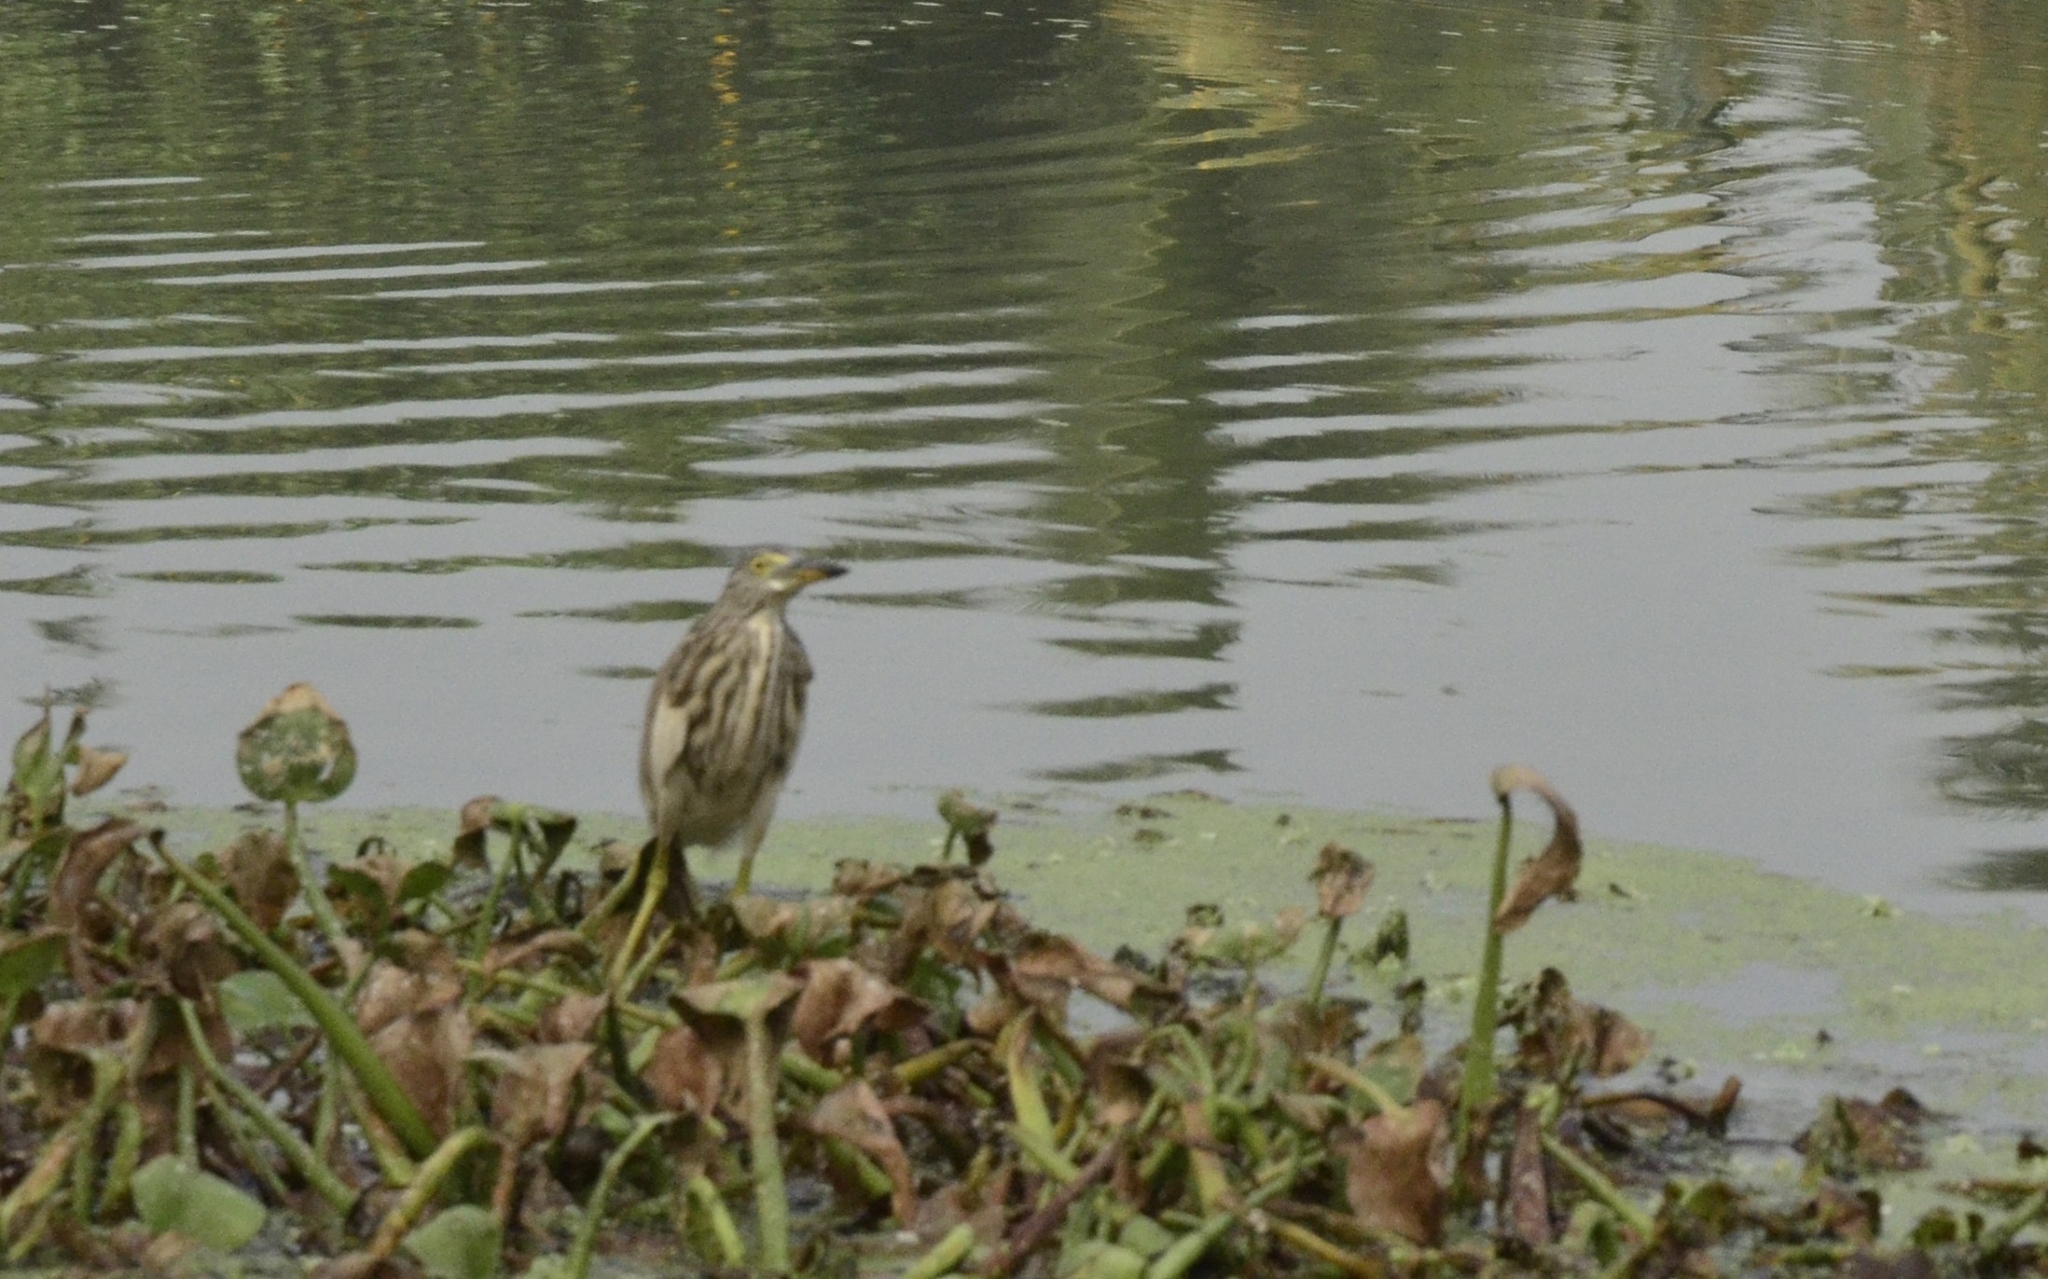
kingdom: Animalia
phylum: Chordata
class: Aves
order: Pelecaniformes
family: Ardeidae
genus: Ardeola
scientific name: Ardeola grayii
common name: Indian pond heron
